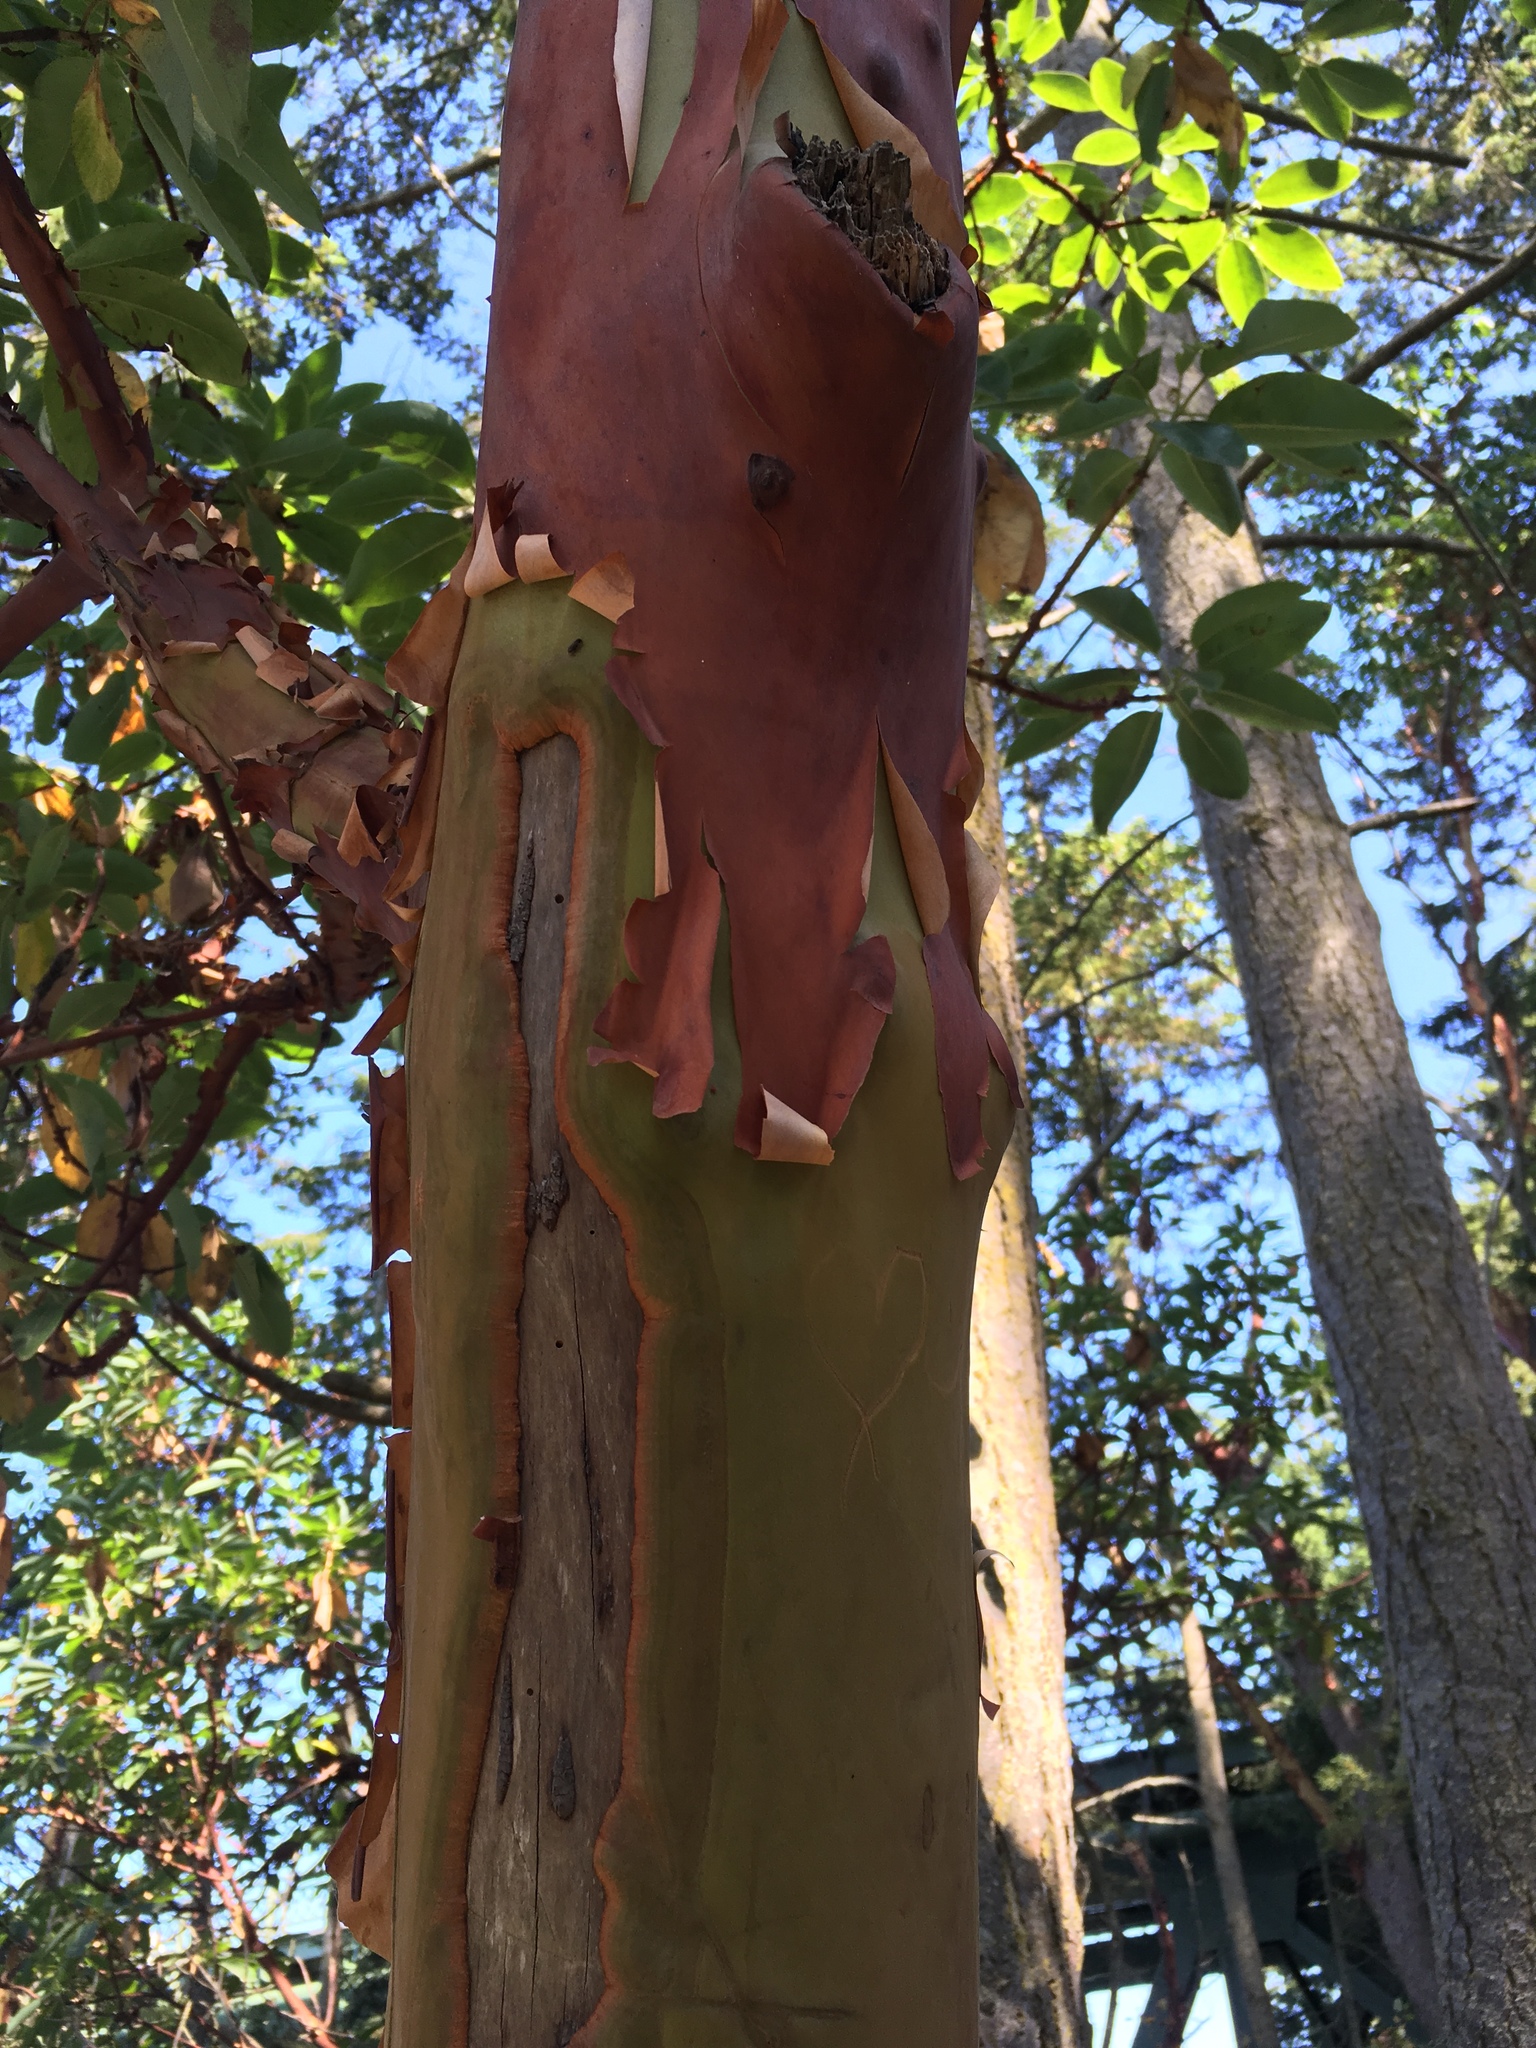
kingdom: Plantae
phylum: Tracheophyta
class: Magnoliopsida
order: Ericales
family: Ericaceae
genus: Arbutus
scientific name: Arbutus menziesii
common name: Pacific madrone
